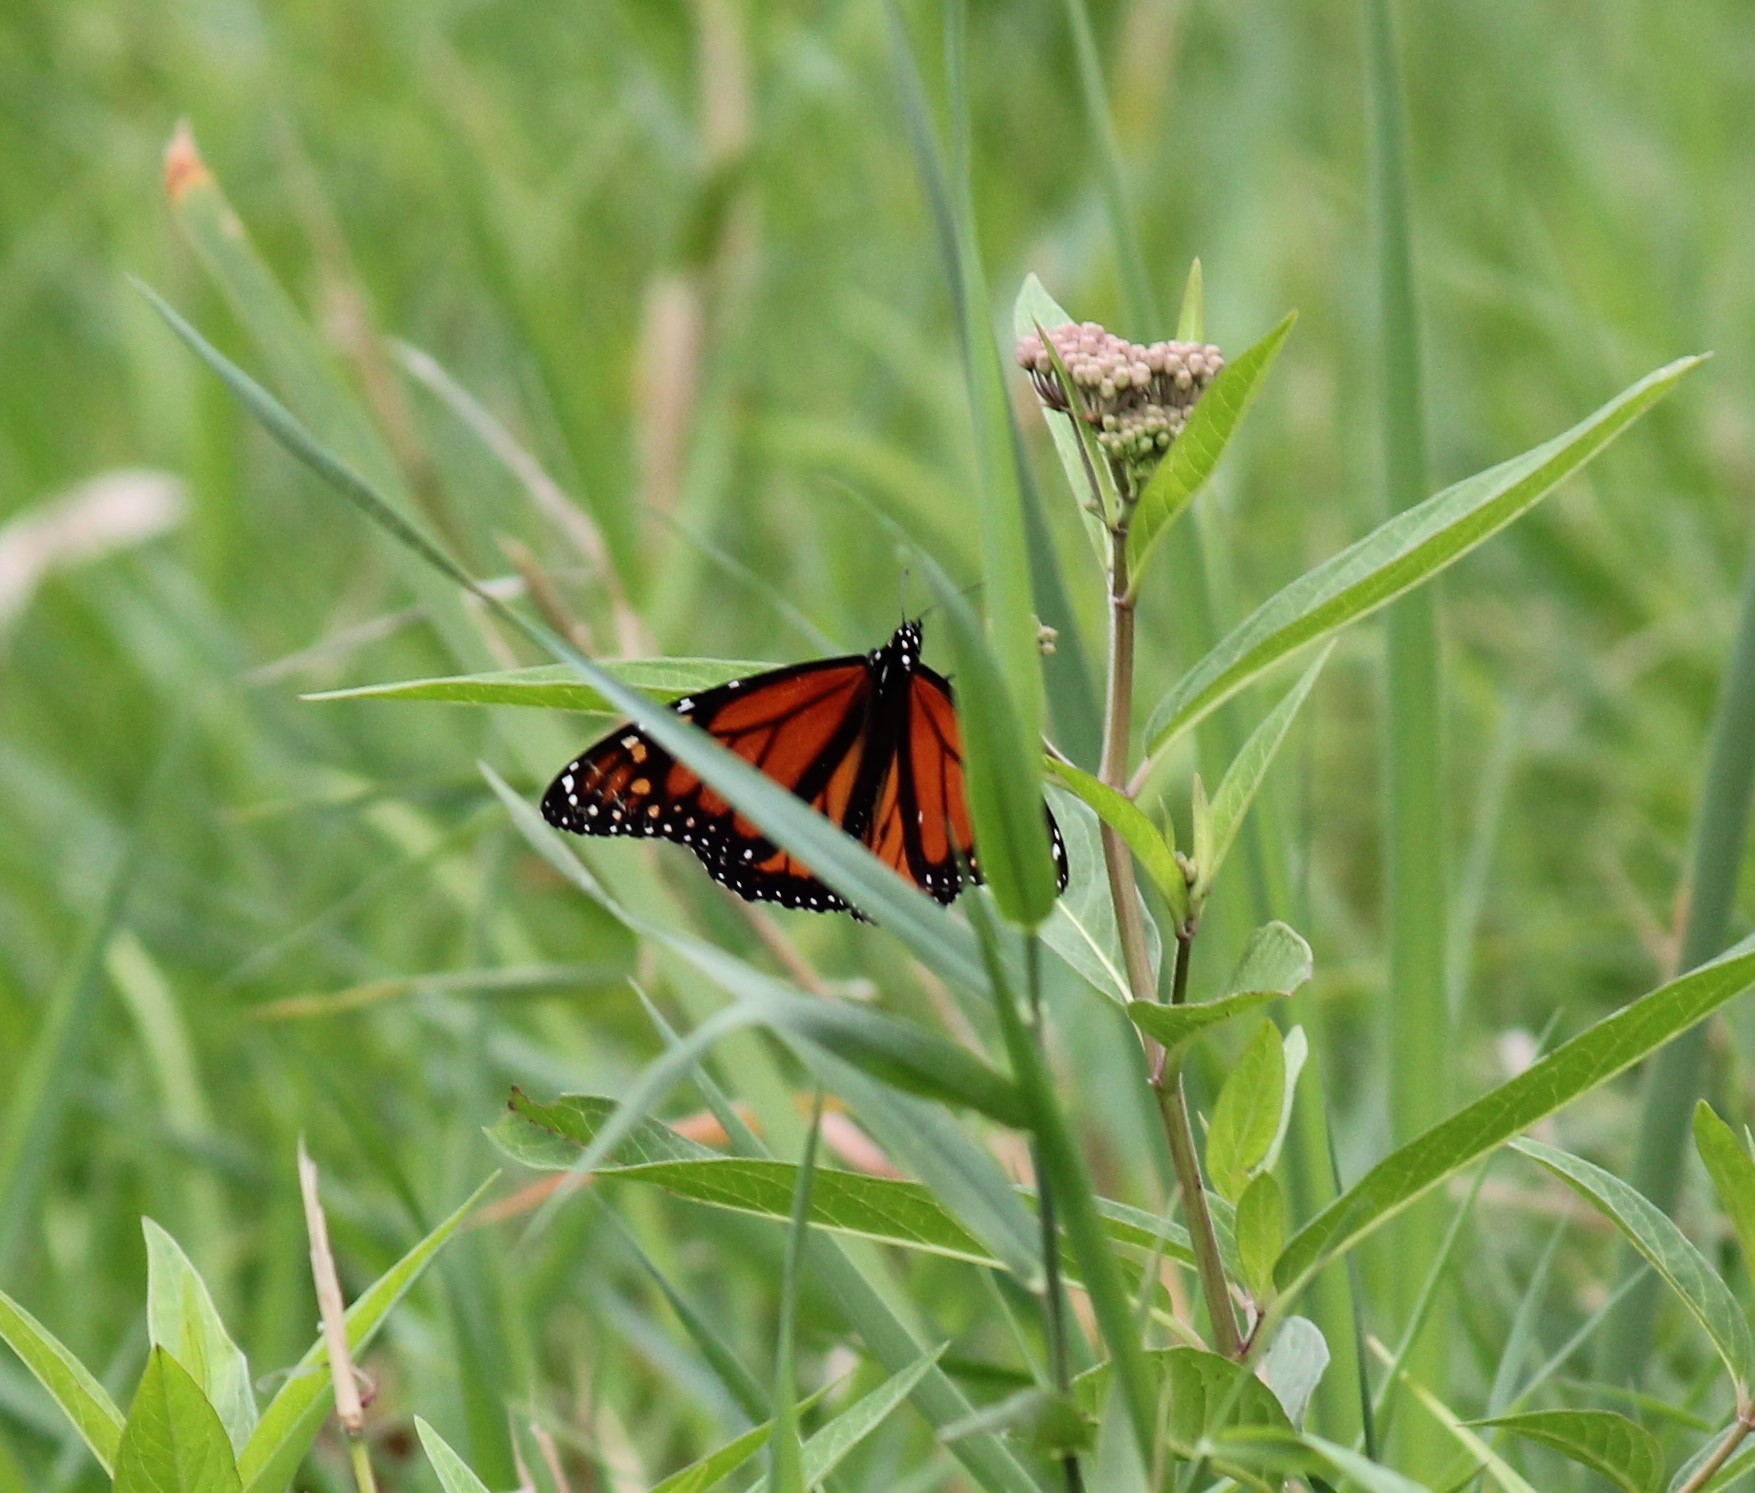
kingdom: Animalia
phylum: Arthropoda
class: Insecta
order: Lepidoptera
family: Nymphalidae
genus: Danaus
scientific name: Danaus plexippus
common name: Monarch
